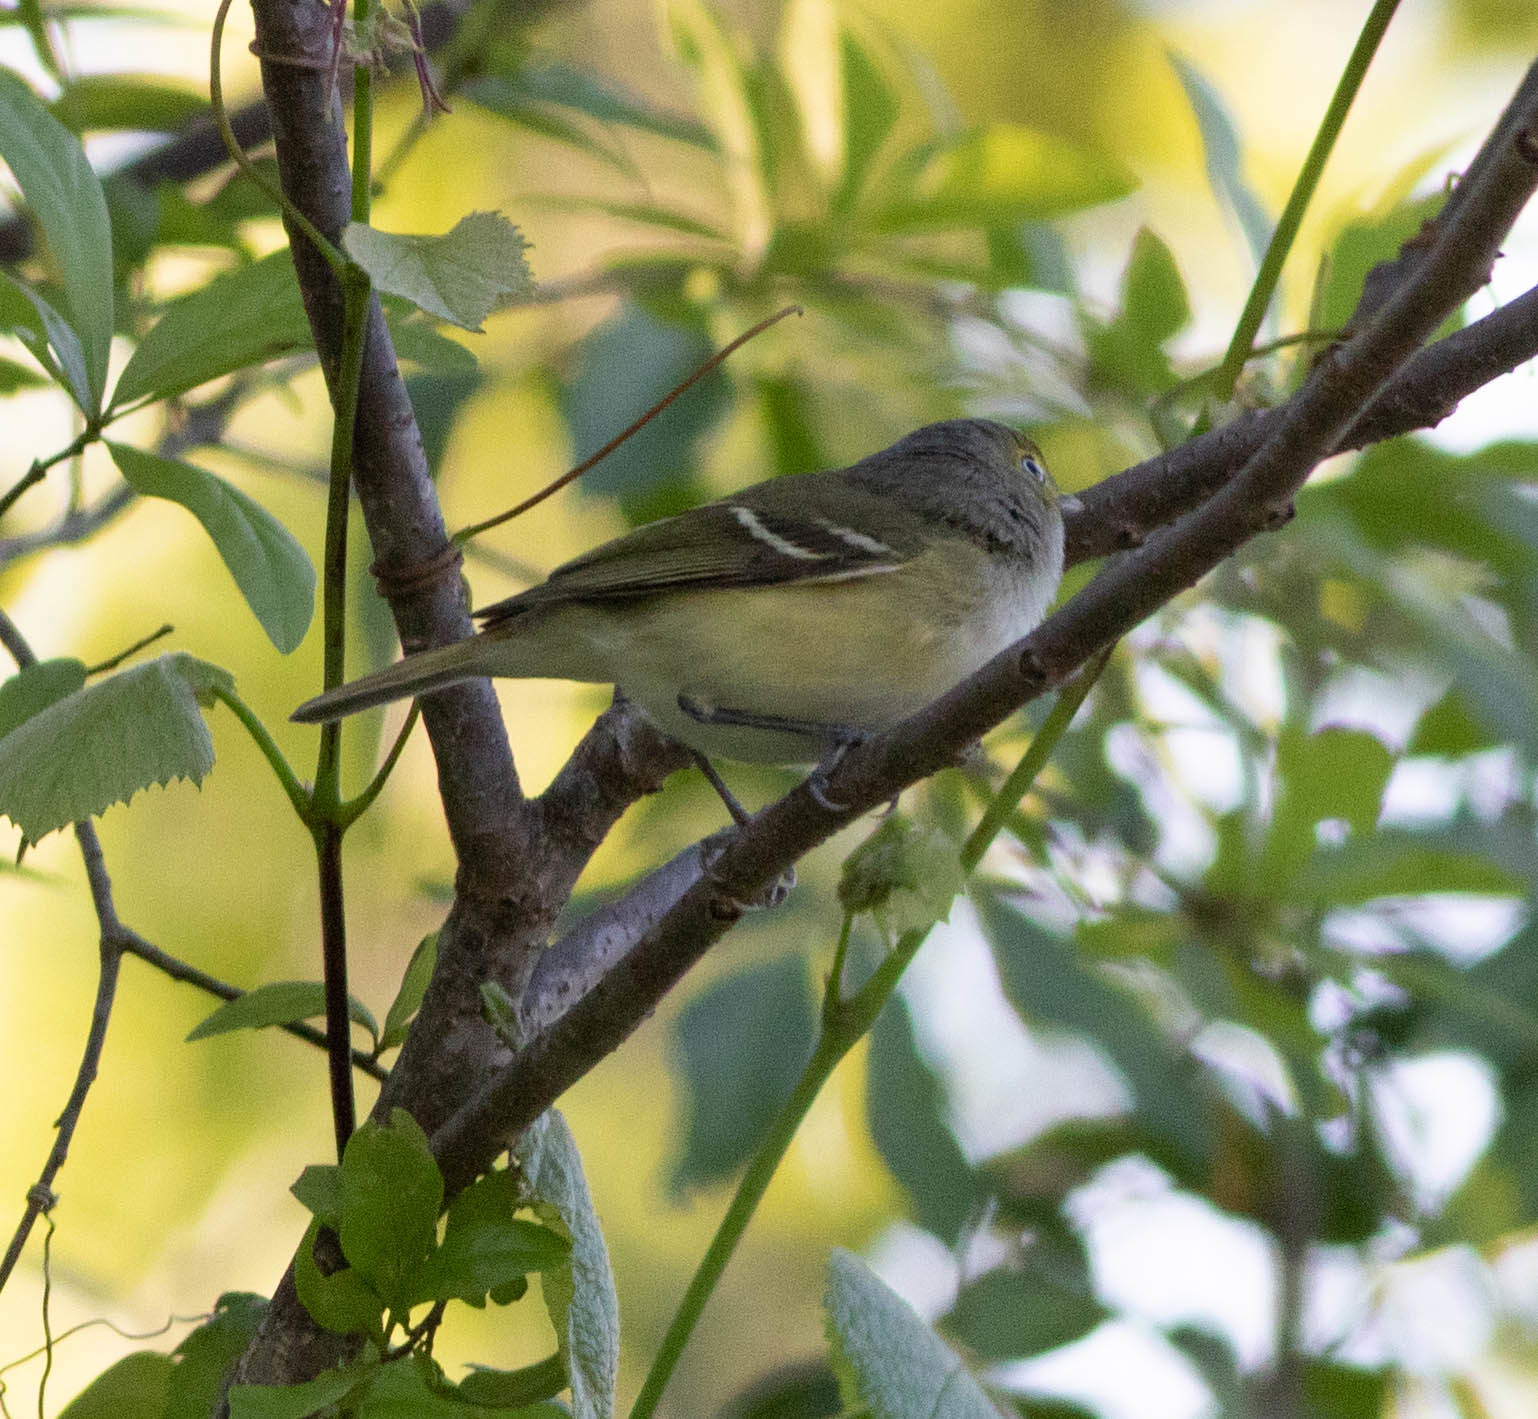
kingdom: Animalia
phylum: Chordata
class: Aves
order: Passeriformes
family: Vireonidae
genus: Vireo
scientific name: Vireo griseus
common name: White-eyed vireo
